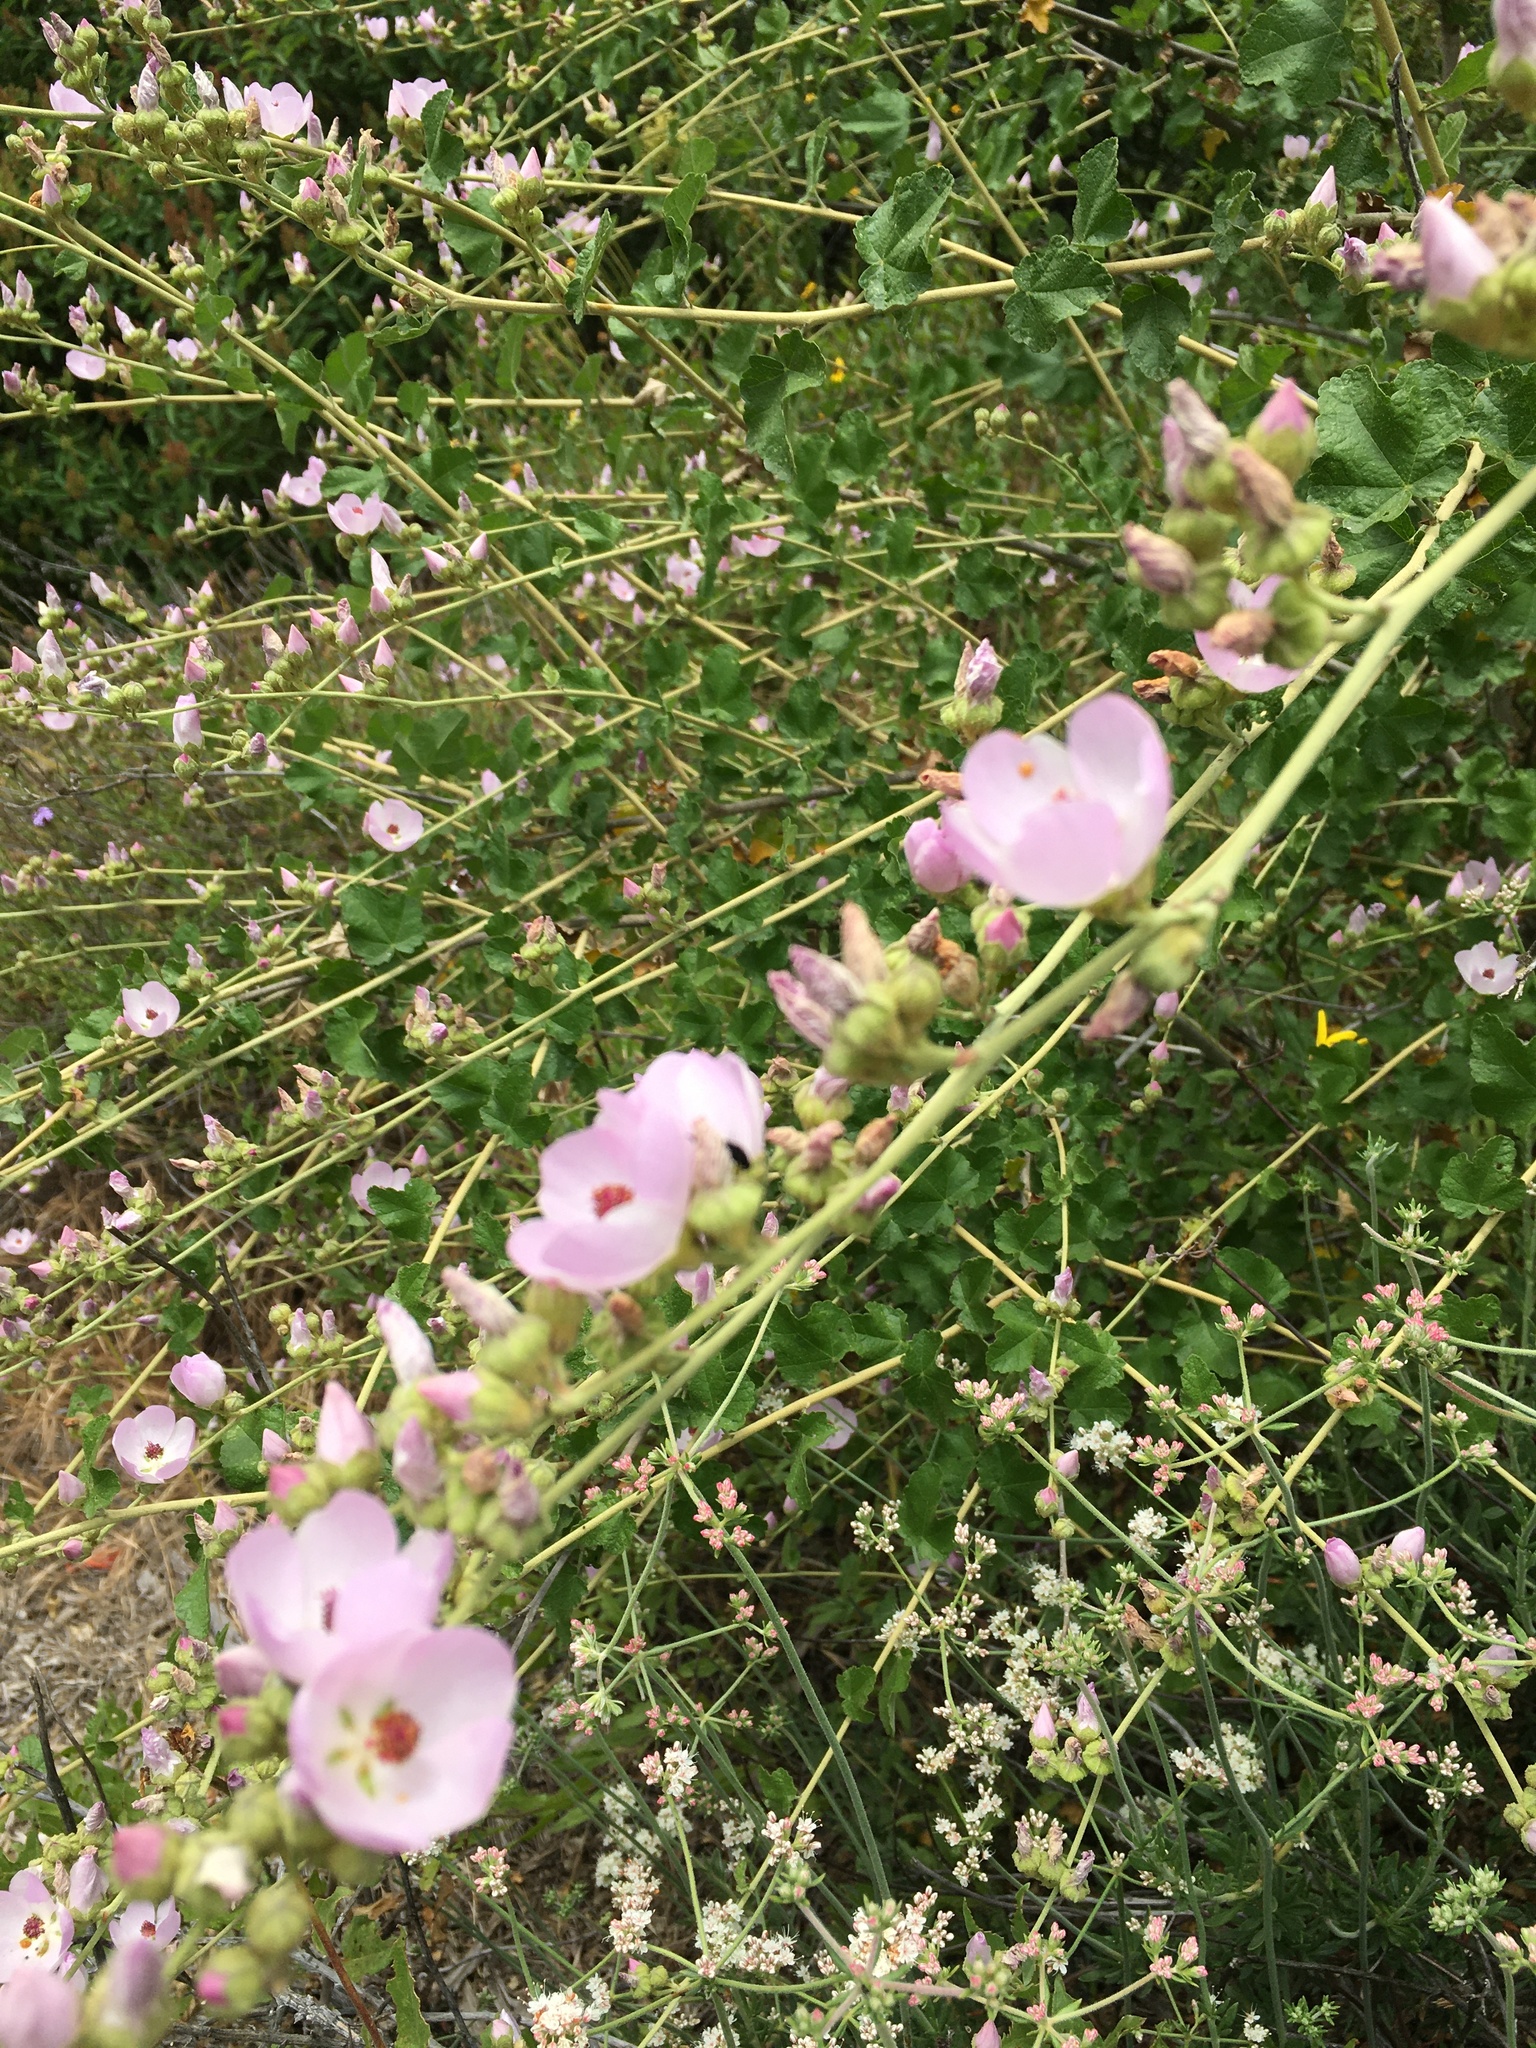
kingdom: Plantae
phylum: Tracheophyta
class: Magnoliopsida
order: Malvales
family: Malvaceae
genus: Malacothamnus
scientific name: Malacothamnus fasciculatus
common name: Sant cruz island bush-mallow
